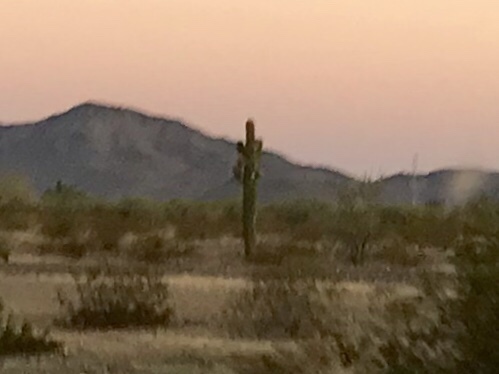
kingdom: Plantae
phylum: Tracheophyta
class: Magnoliopsida
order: Caryophyllales
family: Cactaceae
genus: Carnegiea
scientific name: Carnegiea gigantea
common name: Saguaro
